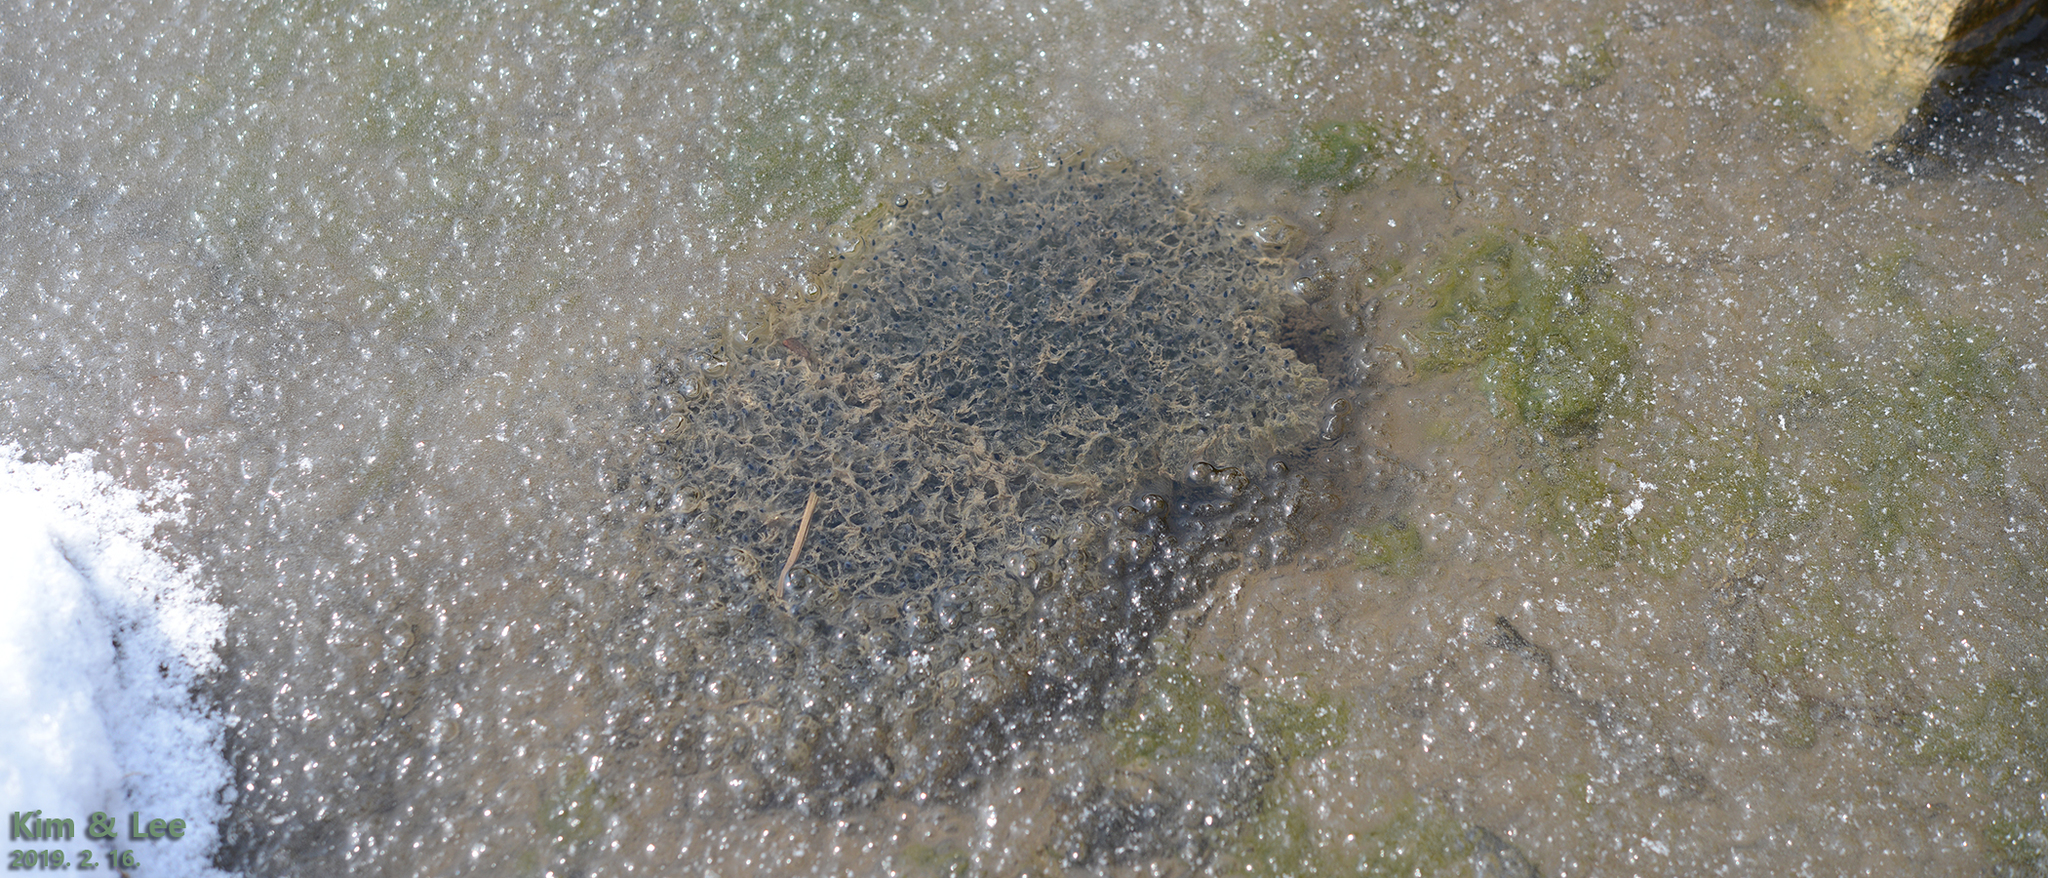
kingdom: Animalia
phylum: Chordata
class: Amphibia
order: Anura
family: Ranidae
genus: Rana
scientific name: Rana uenoi
